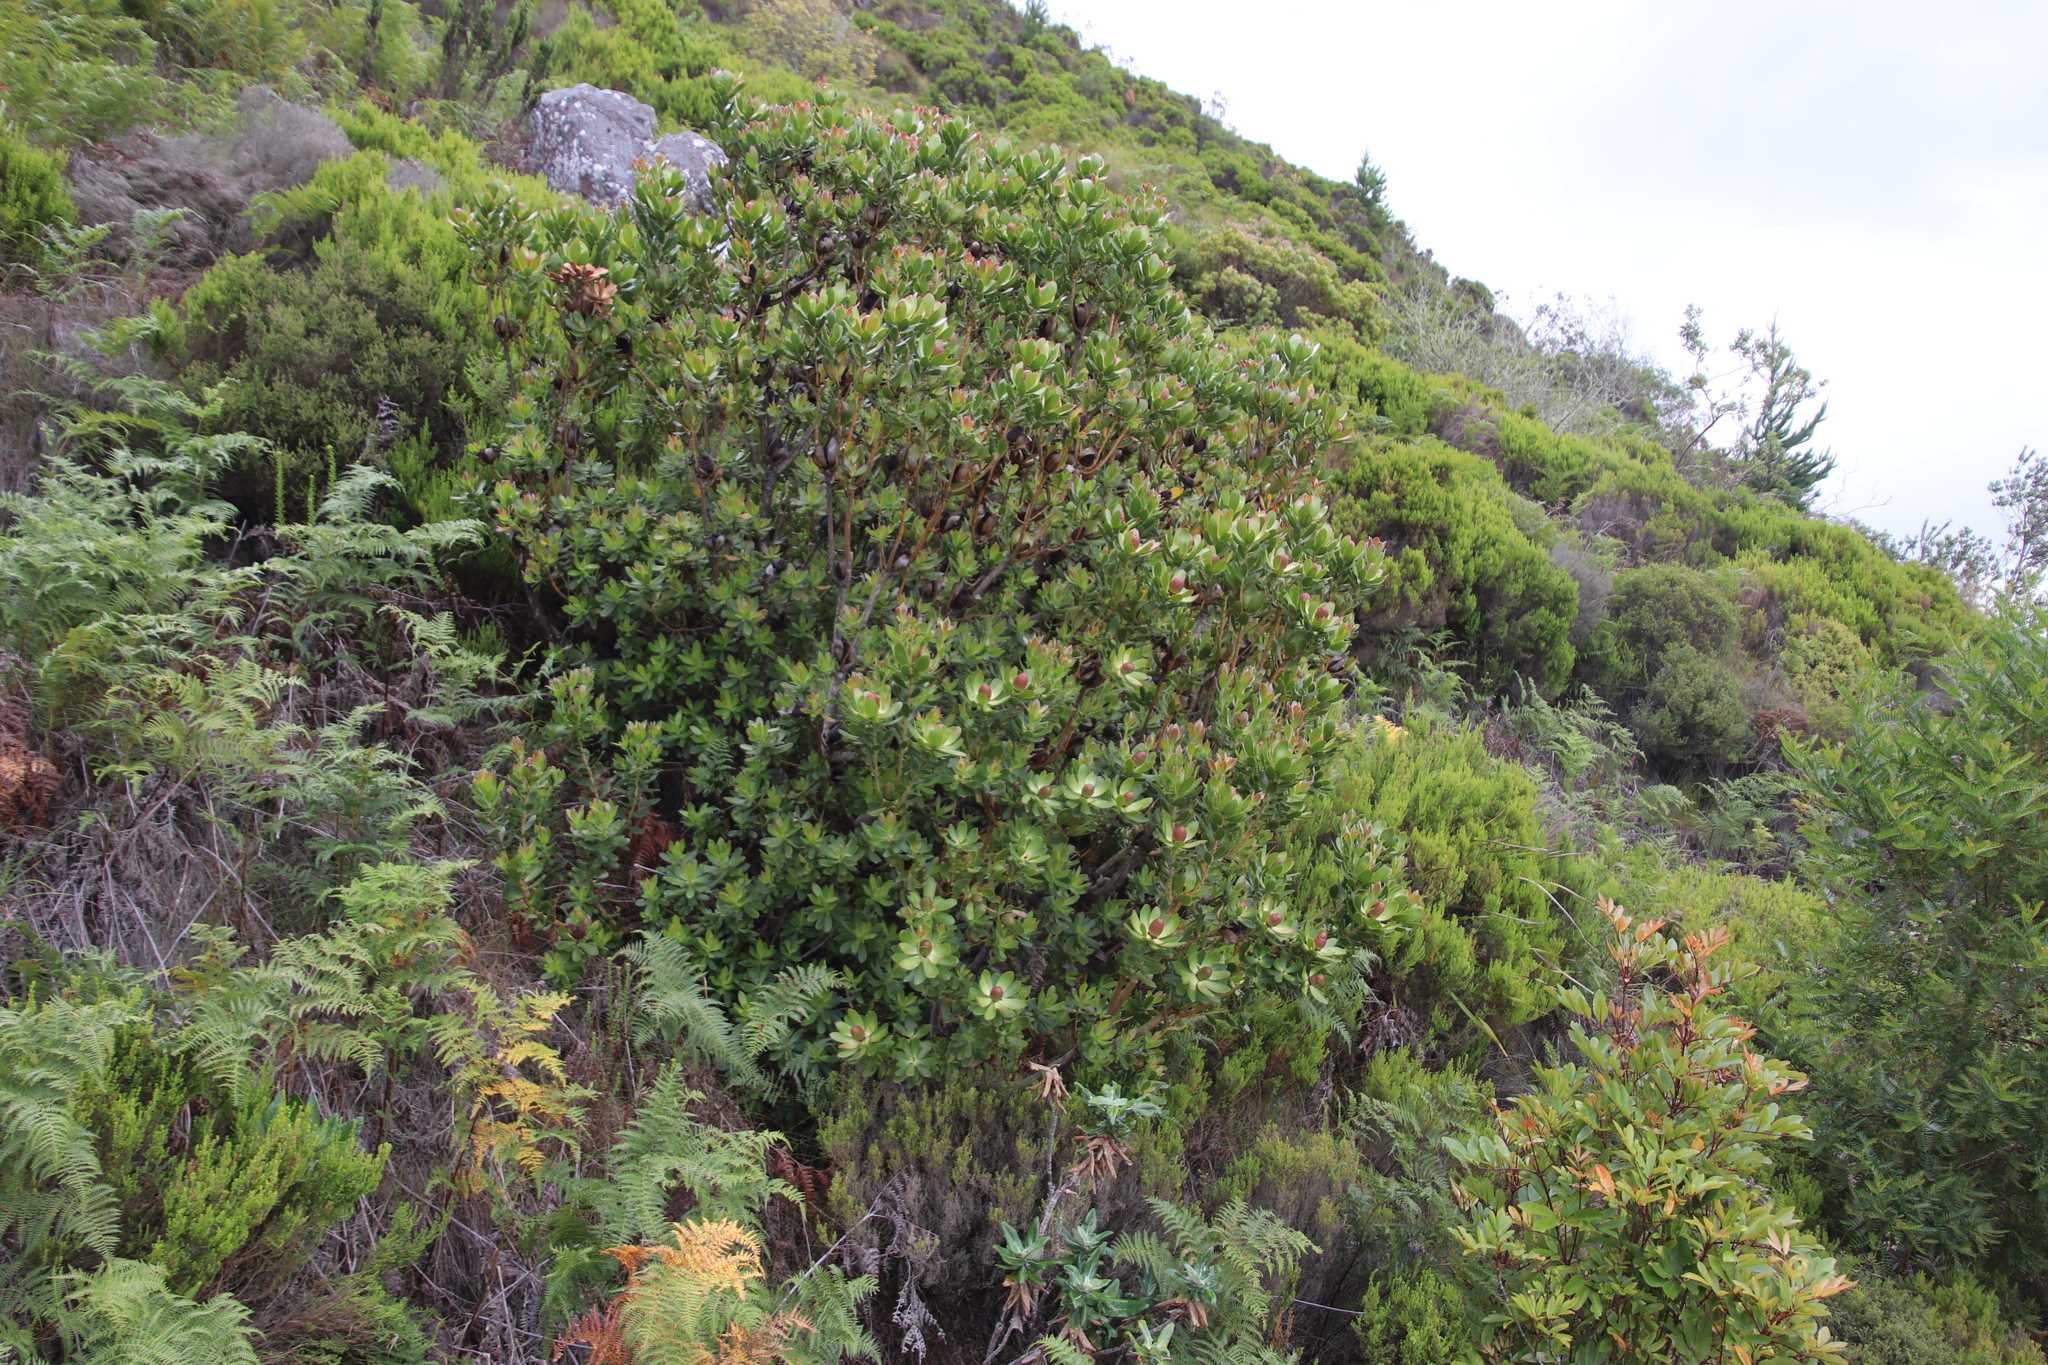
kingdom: Plantae
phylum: Tracheophyta
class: Magnoliopsida
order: Proteales
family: Proteaceae
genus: Leucadendron
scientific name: Leucadendron strobilinum
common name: Mountain rose
